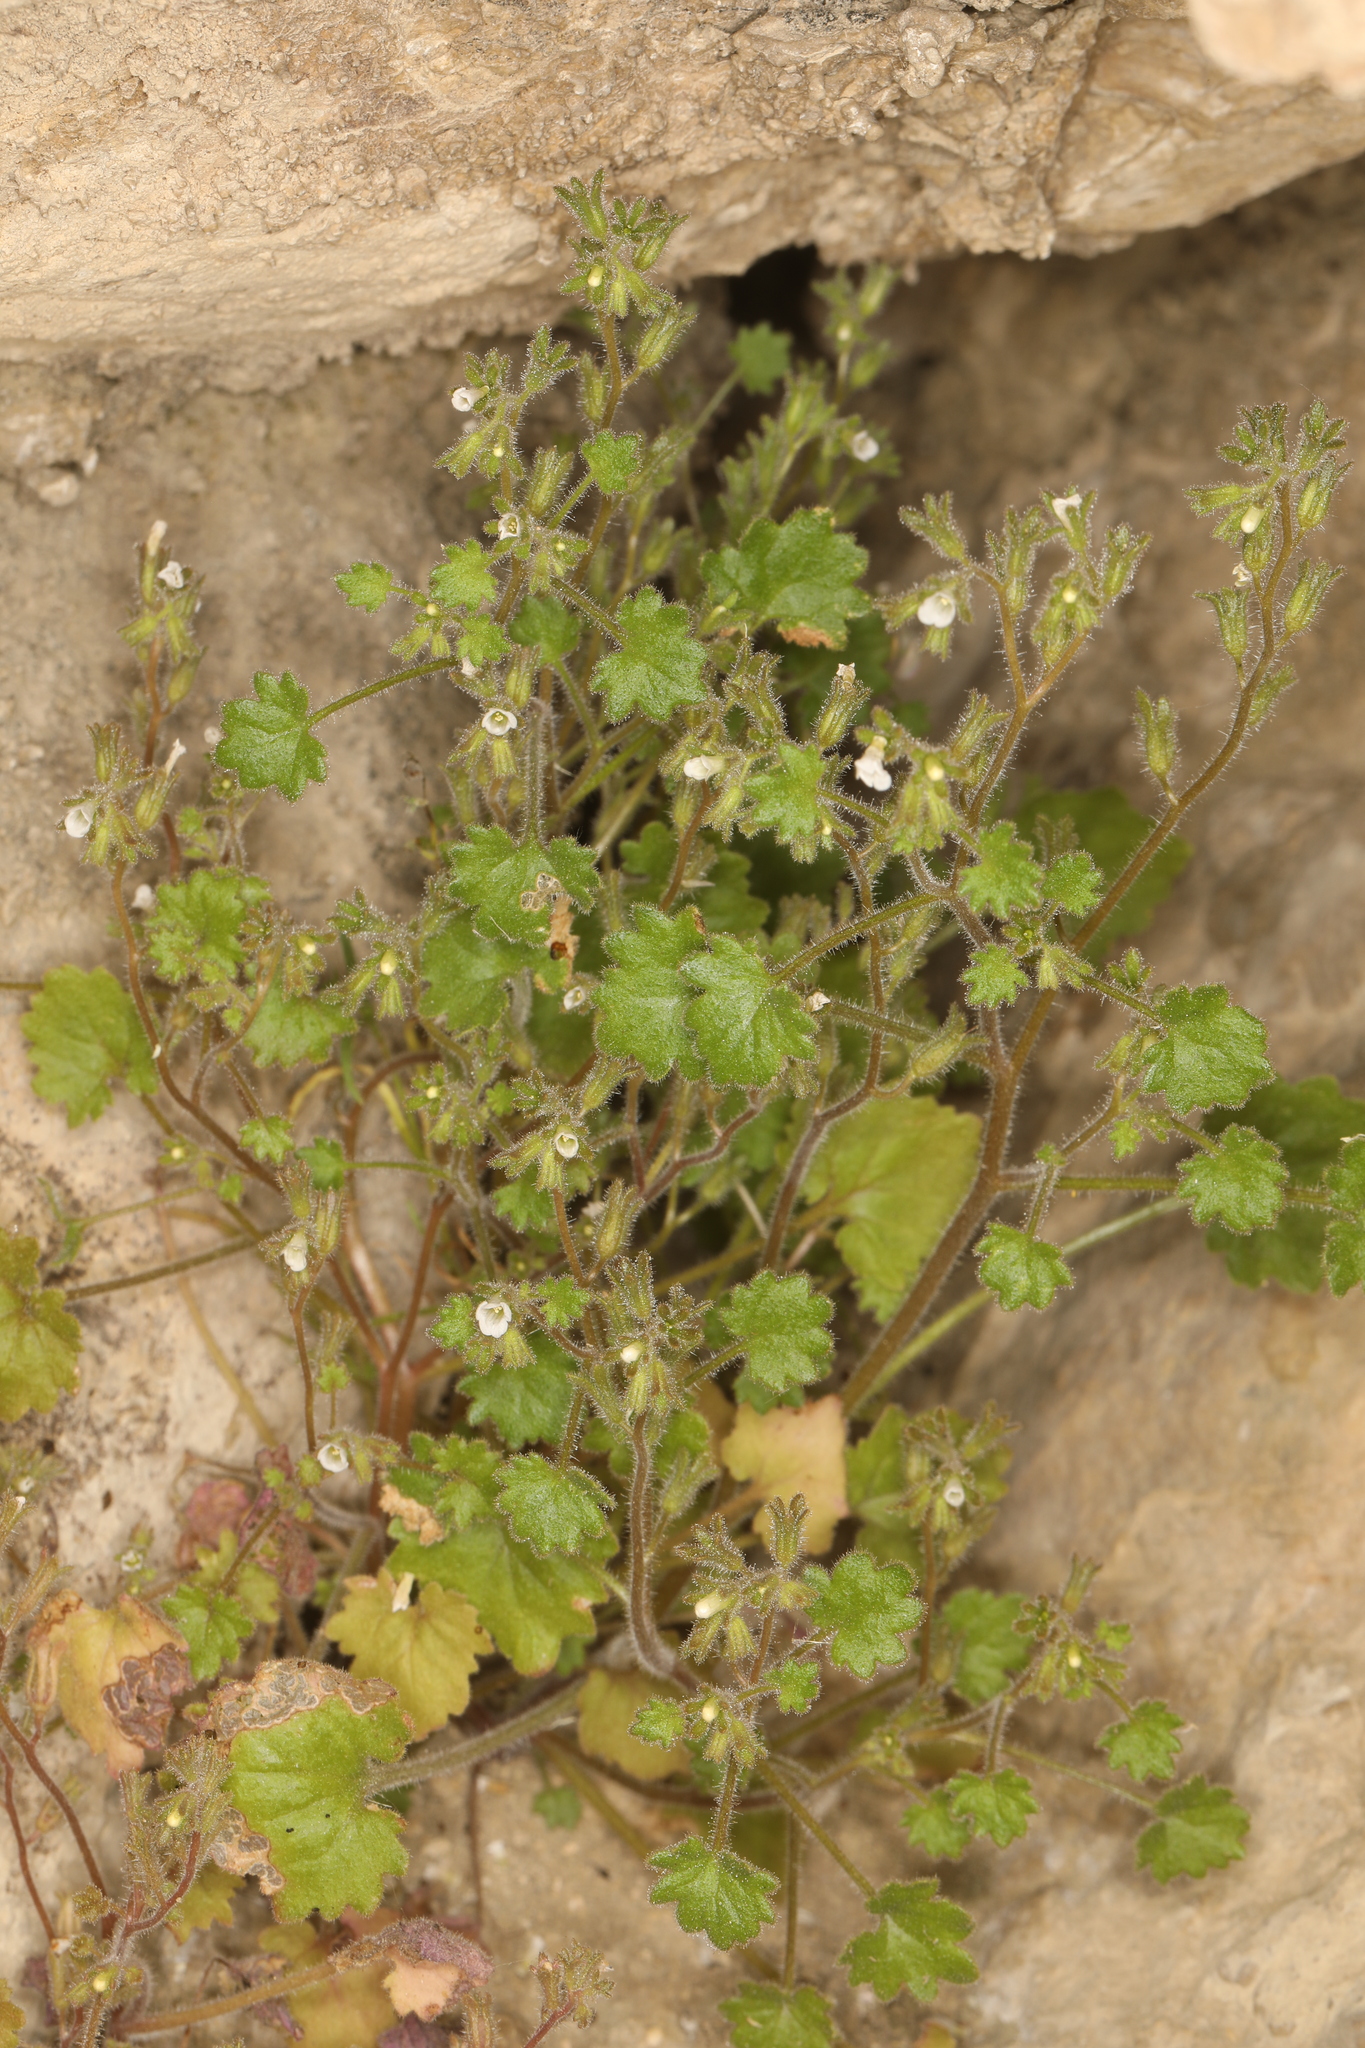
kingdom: Plantae
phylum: Tracheophyta
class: Magnoliopsida
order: Boraginales
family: Hydrophyllaceae
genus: Phacelia
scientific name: Phacelia rotundifolia
